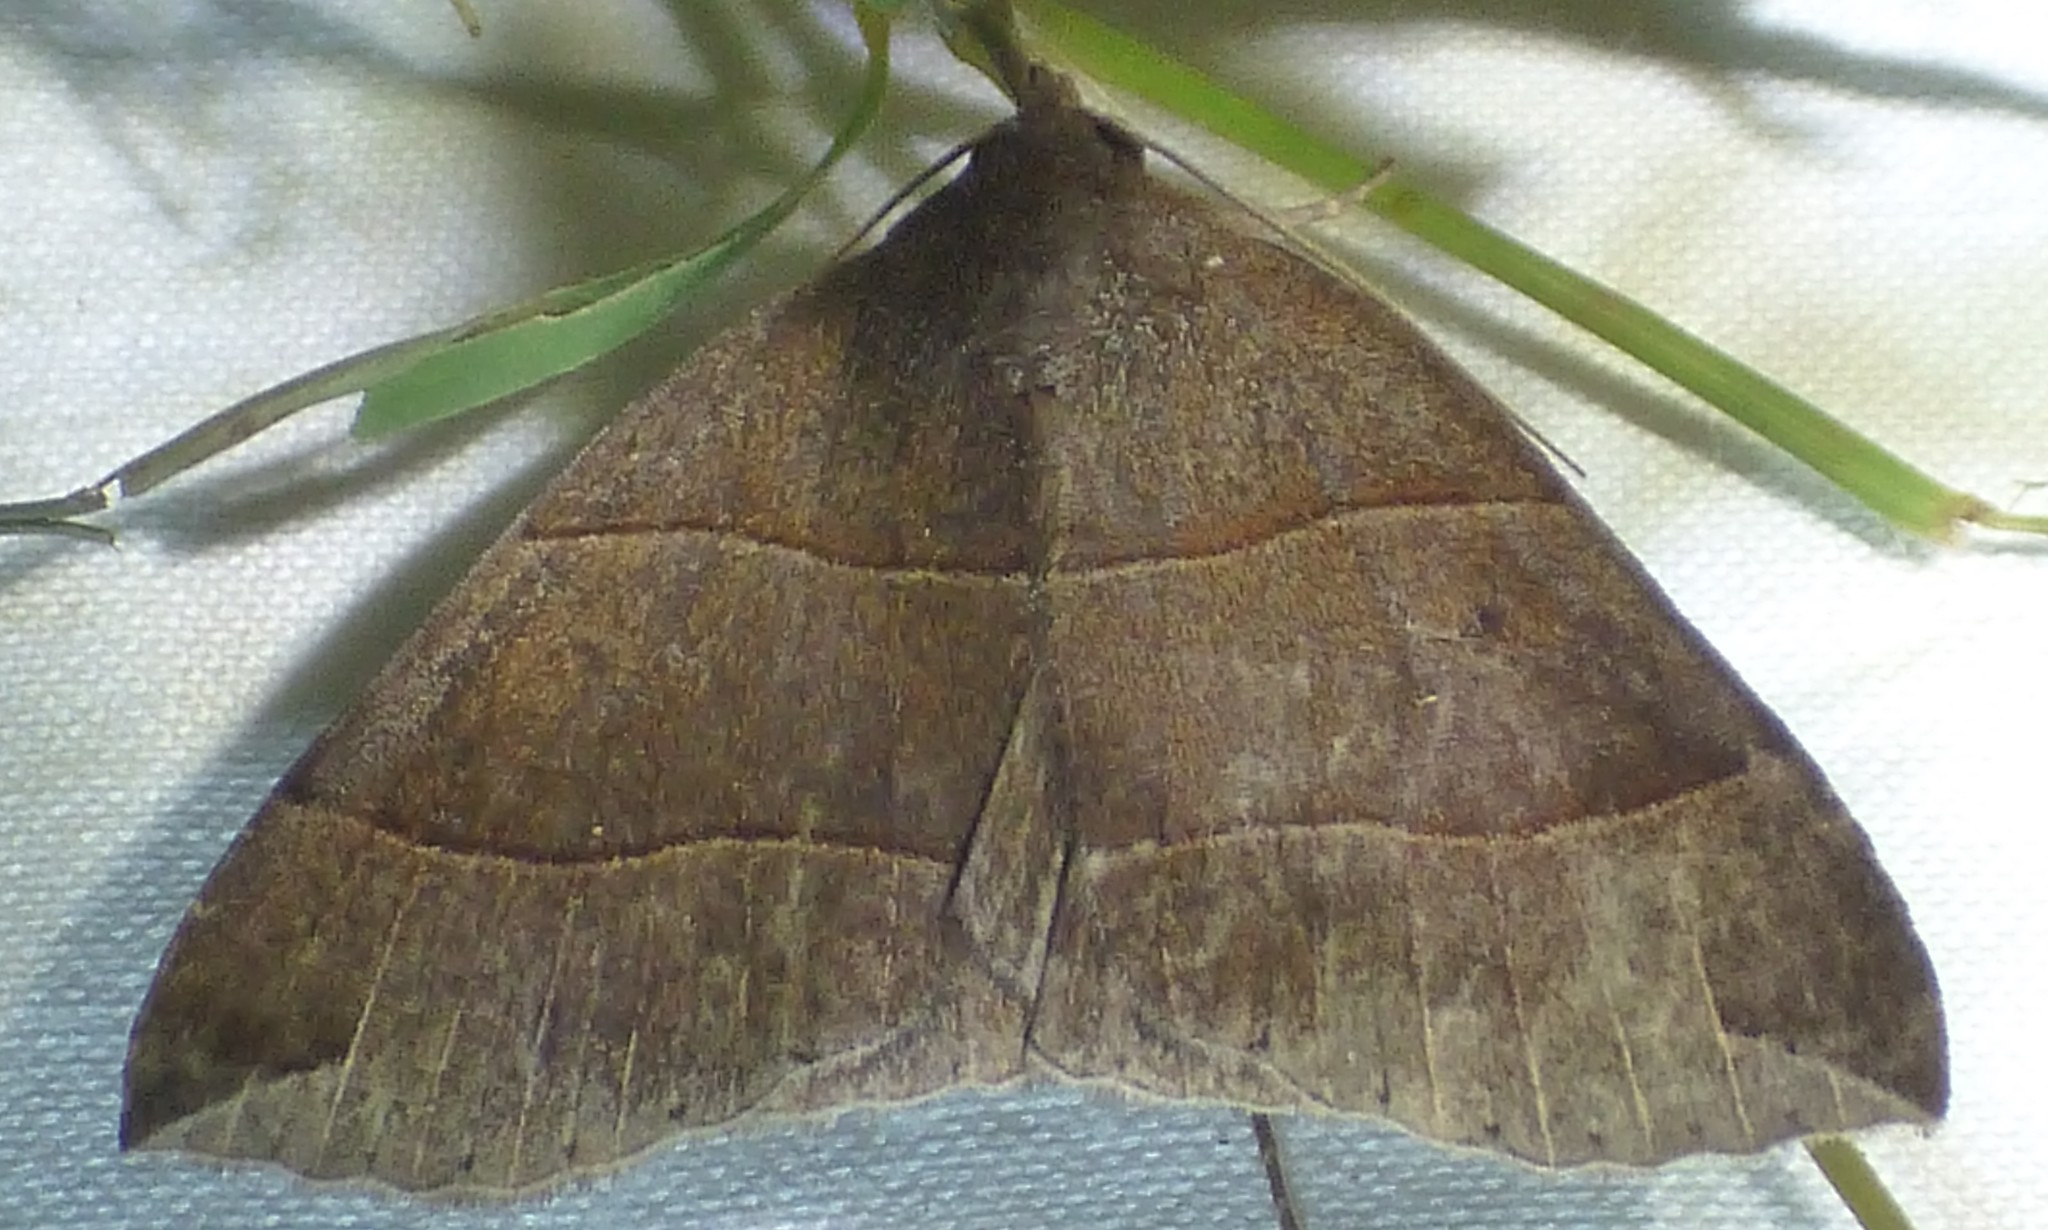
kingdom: Animalia
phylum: Arthropoda
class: Insecta
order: Lepidoptera
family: Erebidae
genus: Parallelia
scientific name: Parallelia bistriaris
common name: Maple looper moth
